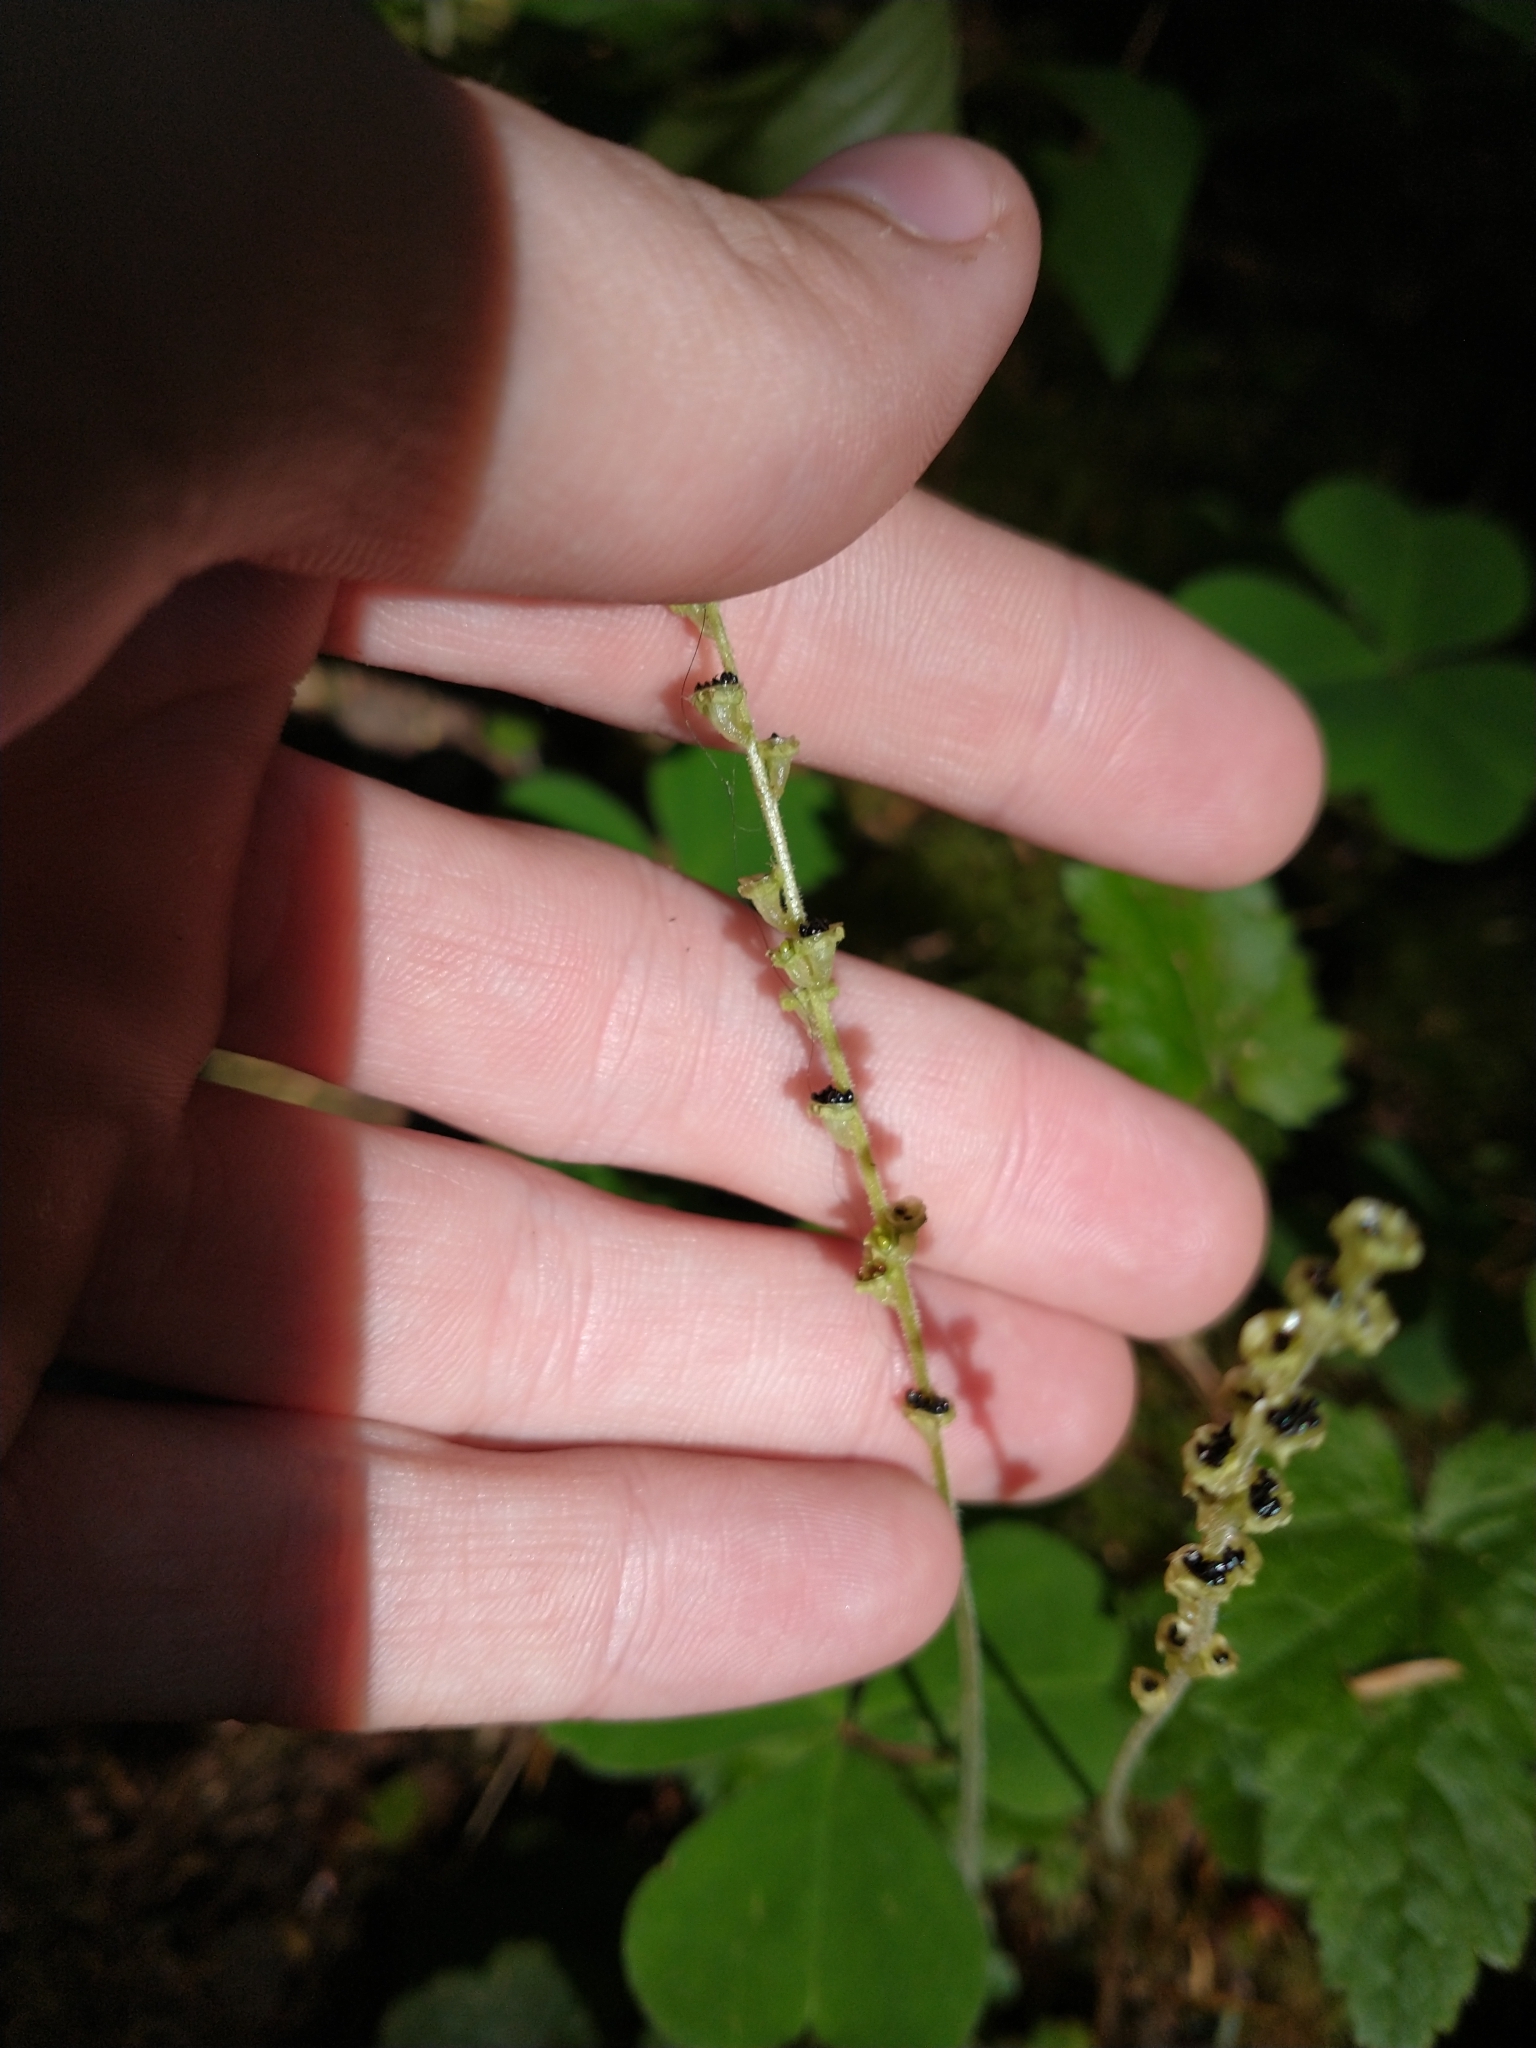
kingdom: Plantae
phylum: Tracheophyta
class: Magnoliopsida
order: Saxifragales
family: Saxifragaceae
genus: Brewerimitella
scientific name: Brewerimitella ovalis
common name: Coastal bishop's-cap
